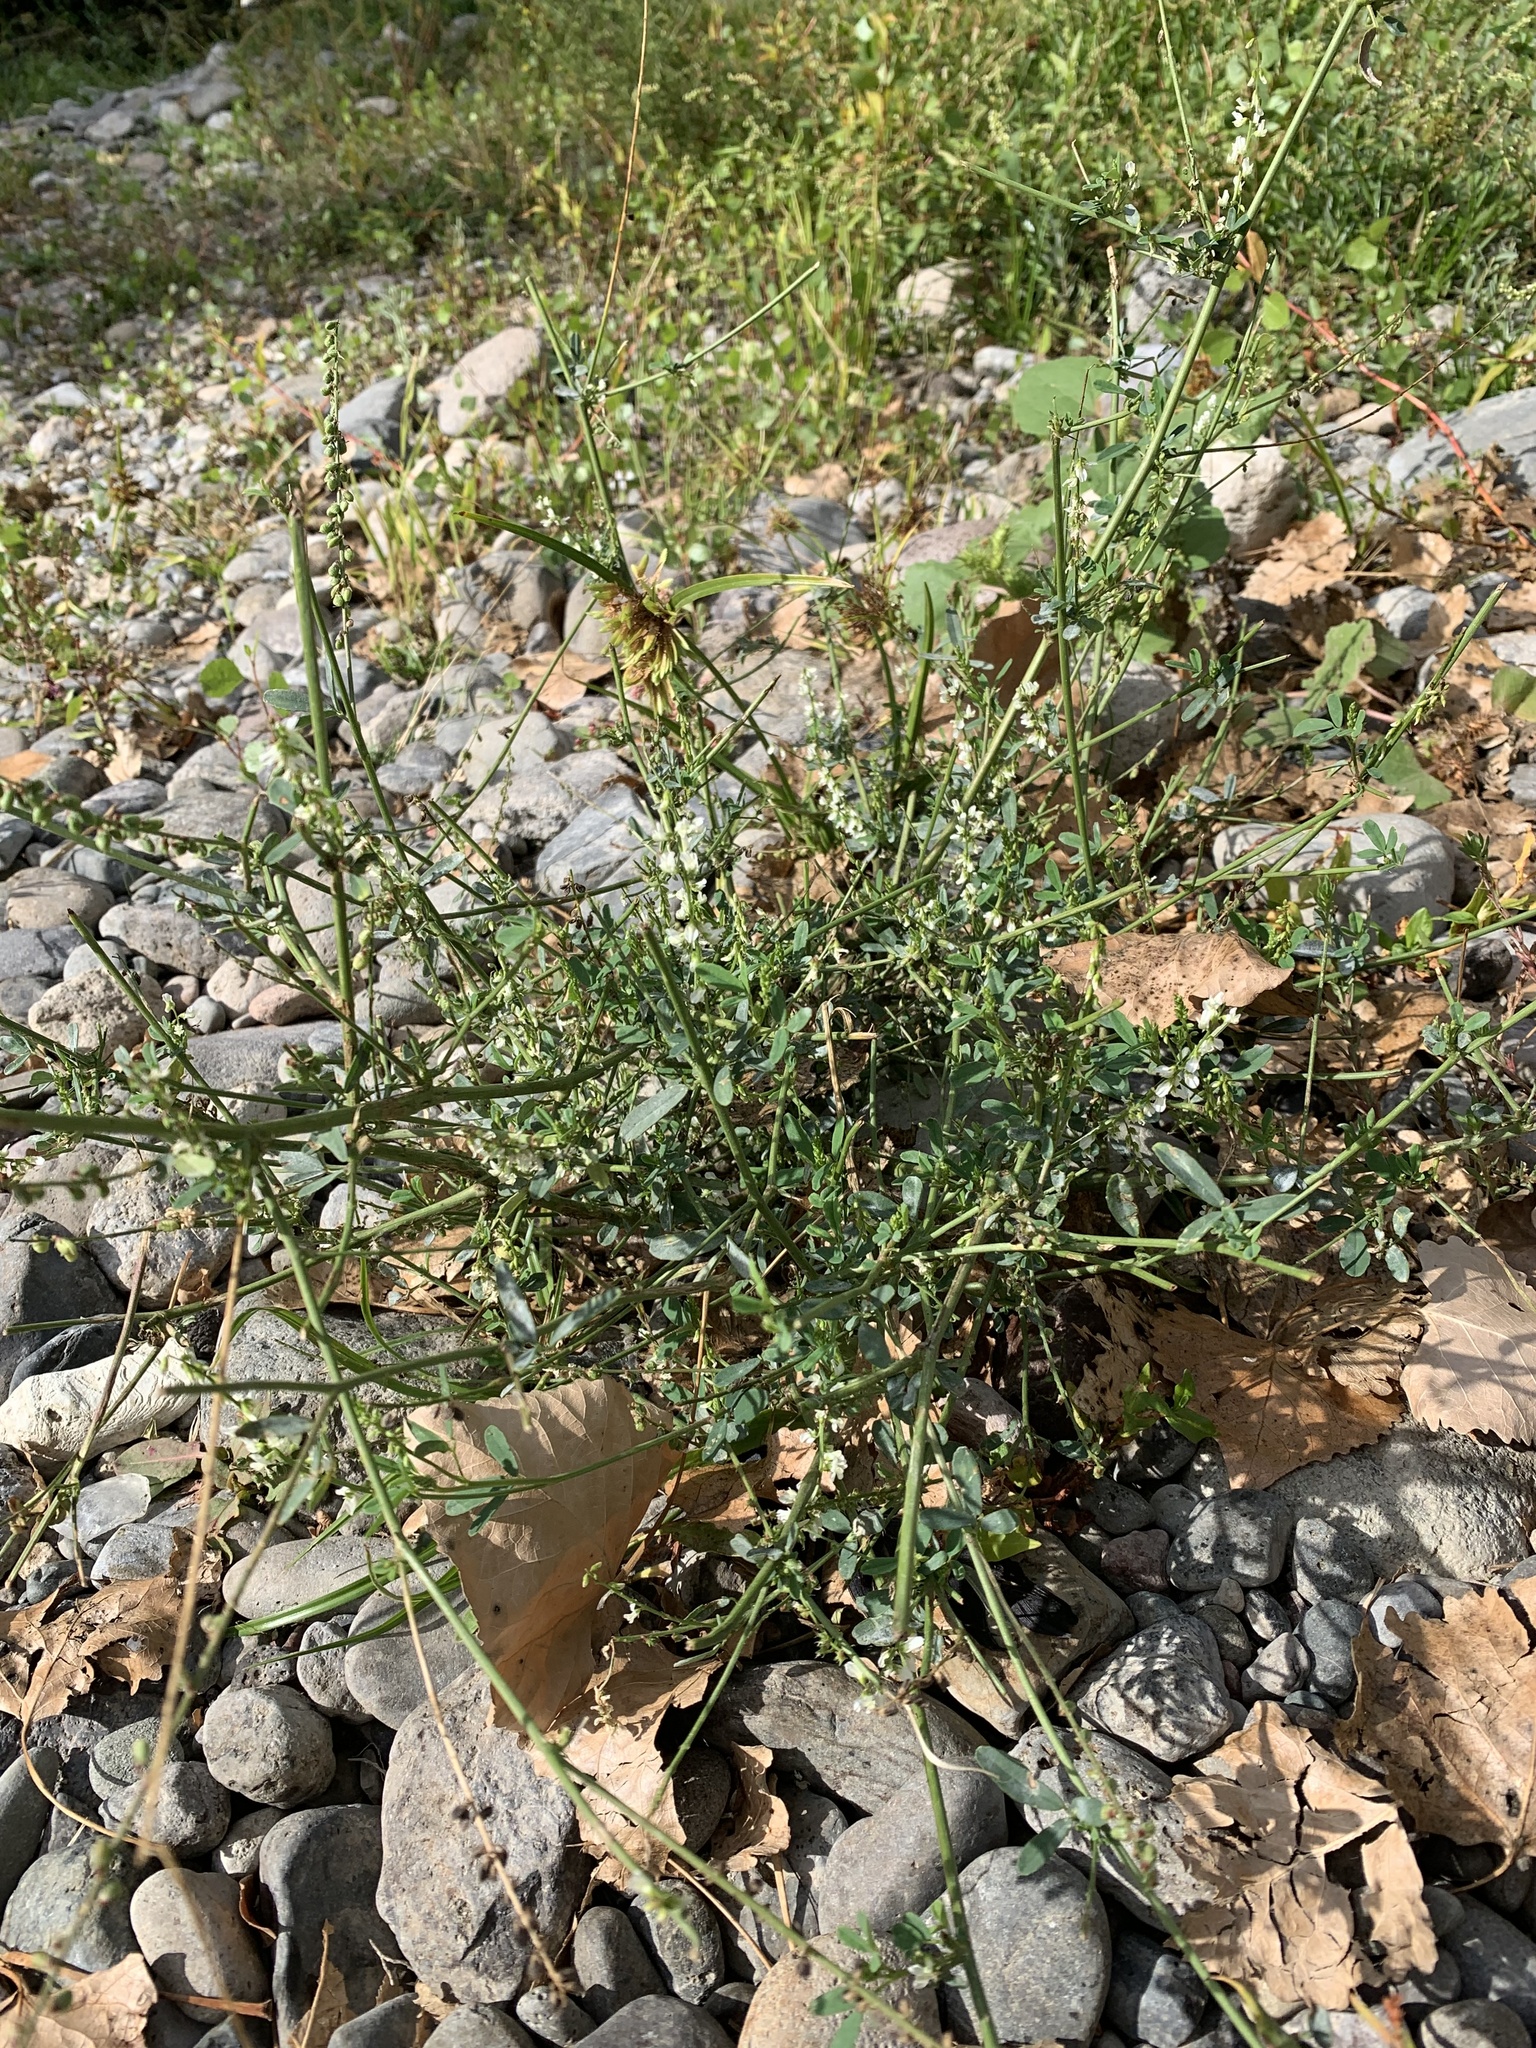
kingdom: Plantae
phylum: Tracheophyta
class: Magnoliopsida
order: Fabales
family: Fabaceae
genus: Melilotus
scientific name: Melilotus albus
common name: White melilot
